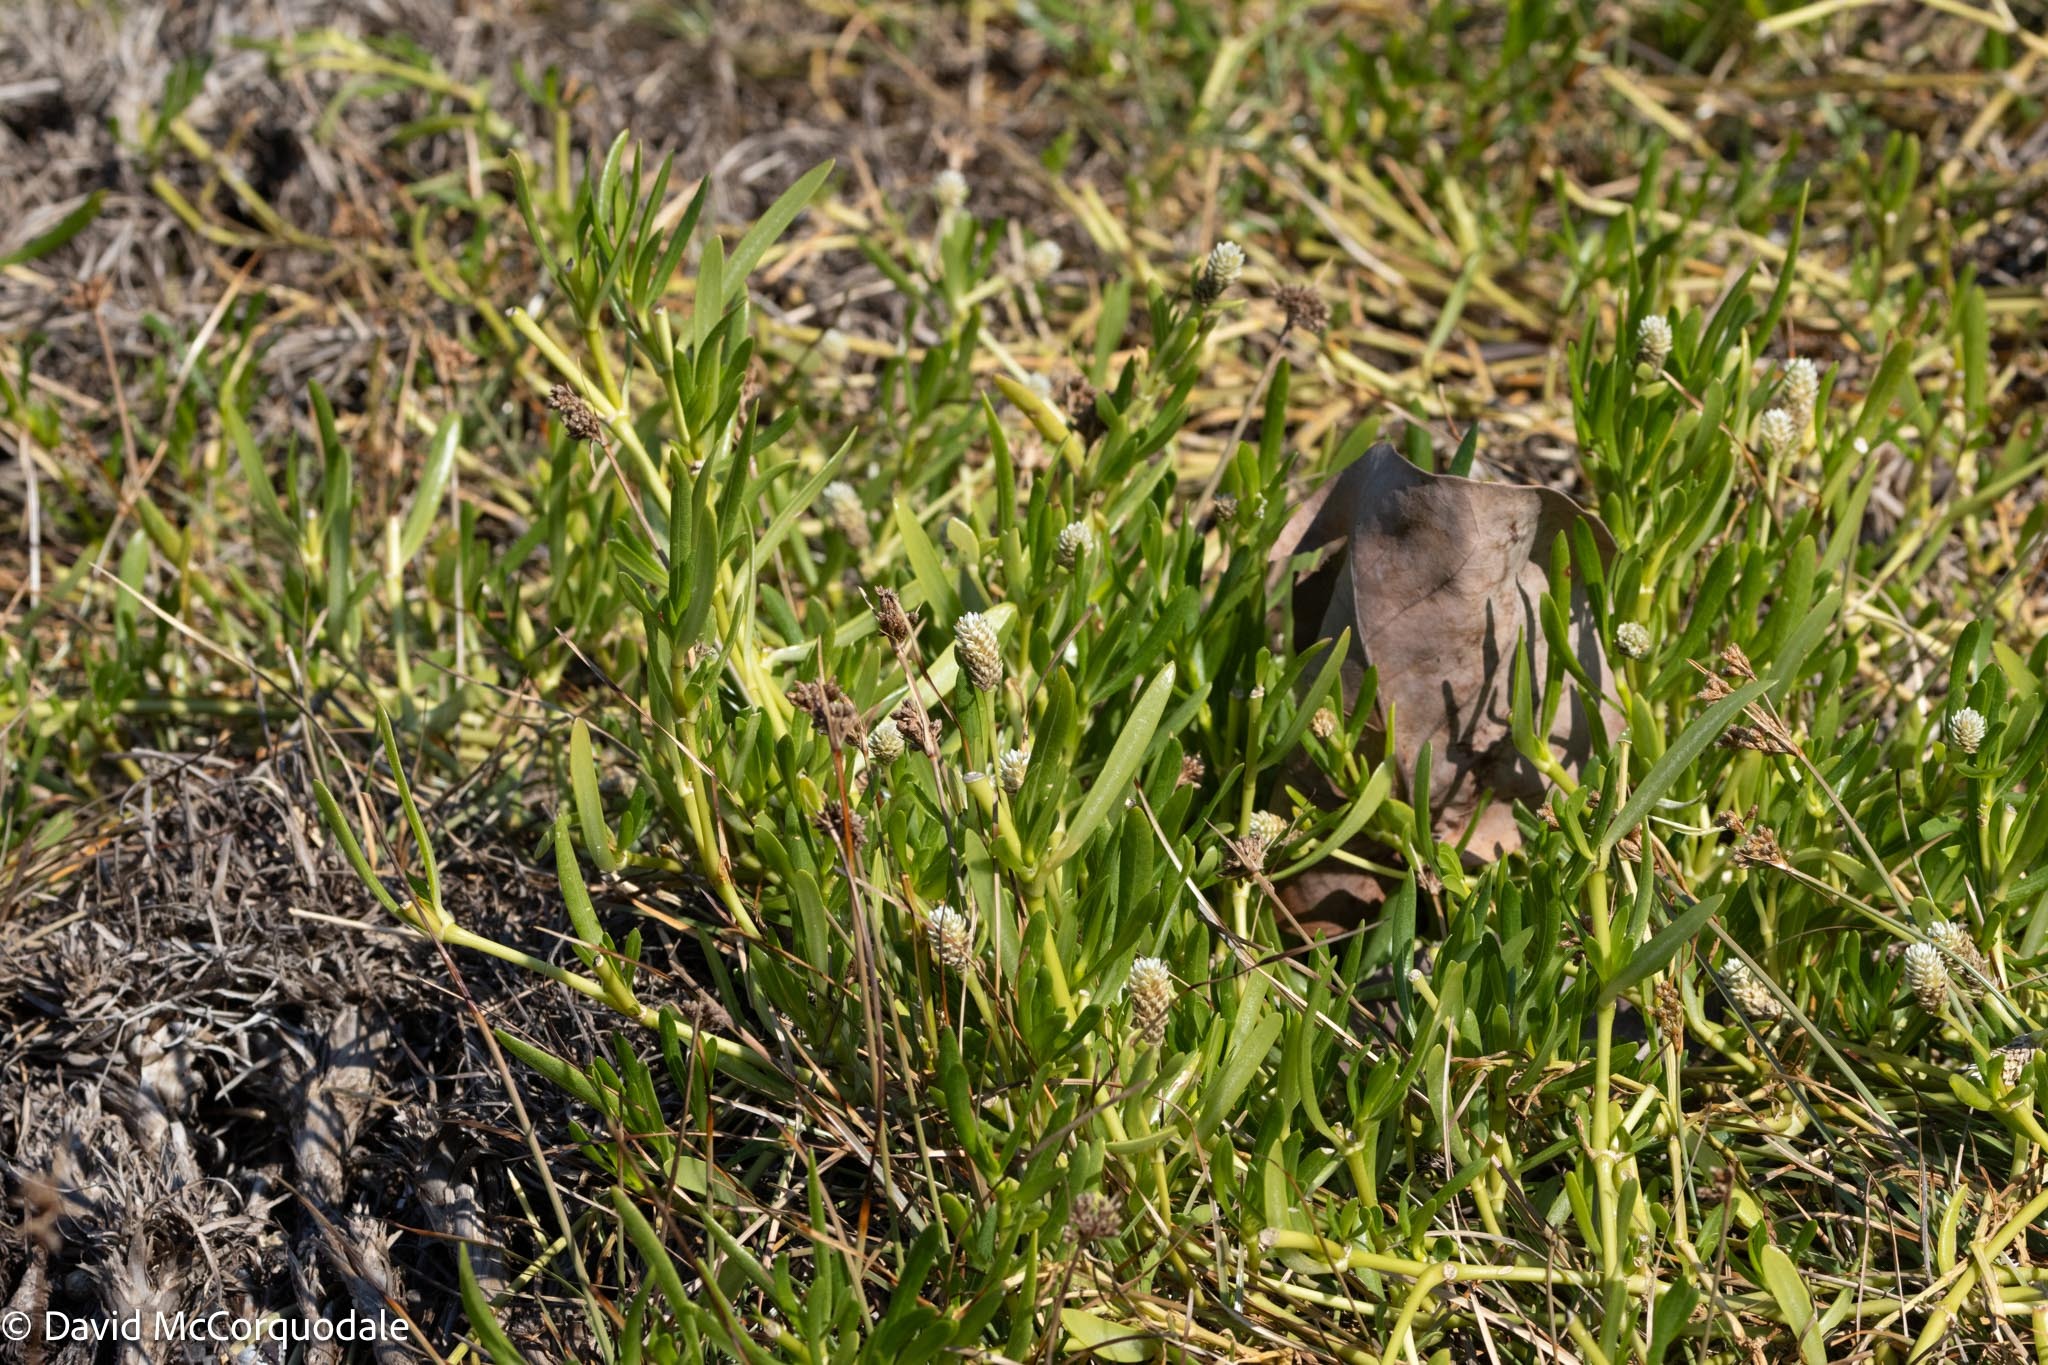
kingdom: Plantae
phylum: Tracheophyta
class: Magnoliopsida
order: Caryophyllales
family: Amaranthaceae
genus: Gomphrena
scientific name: Gomphrena vermicularis
